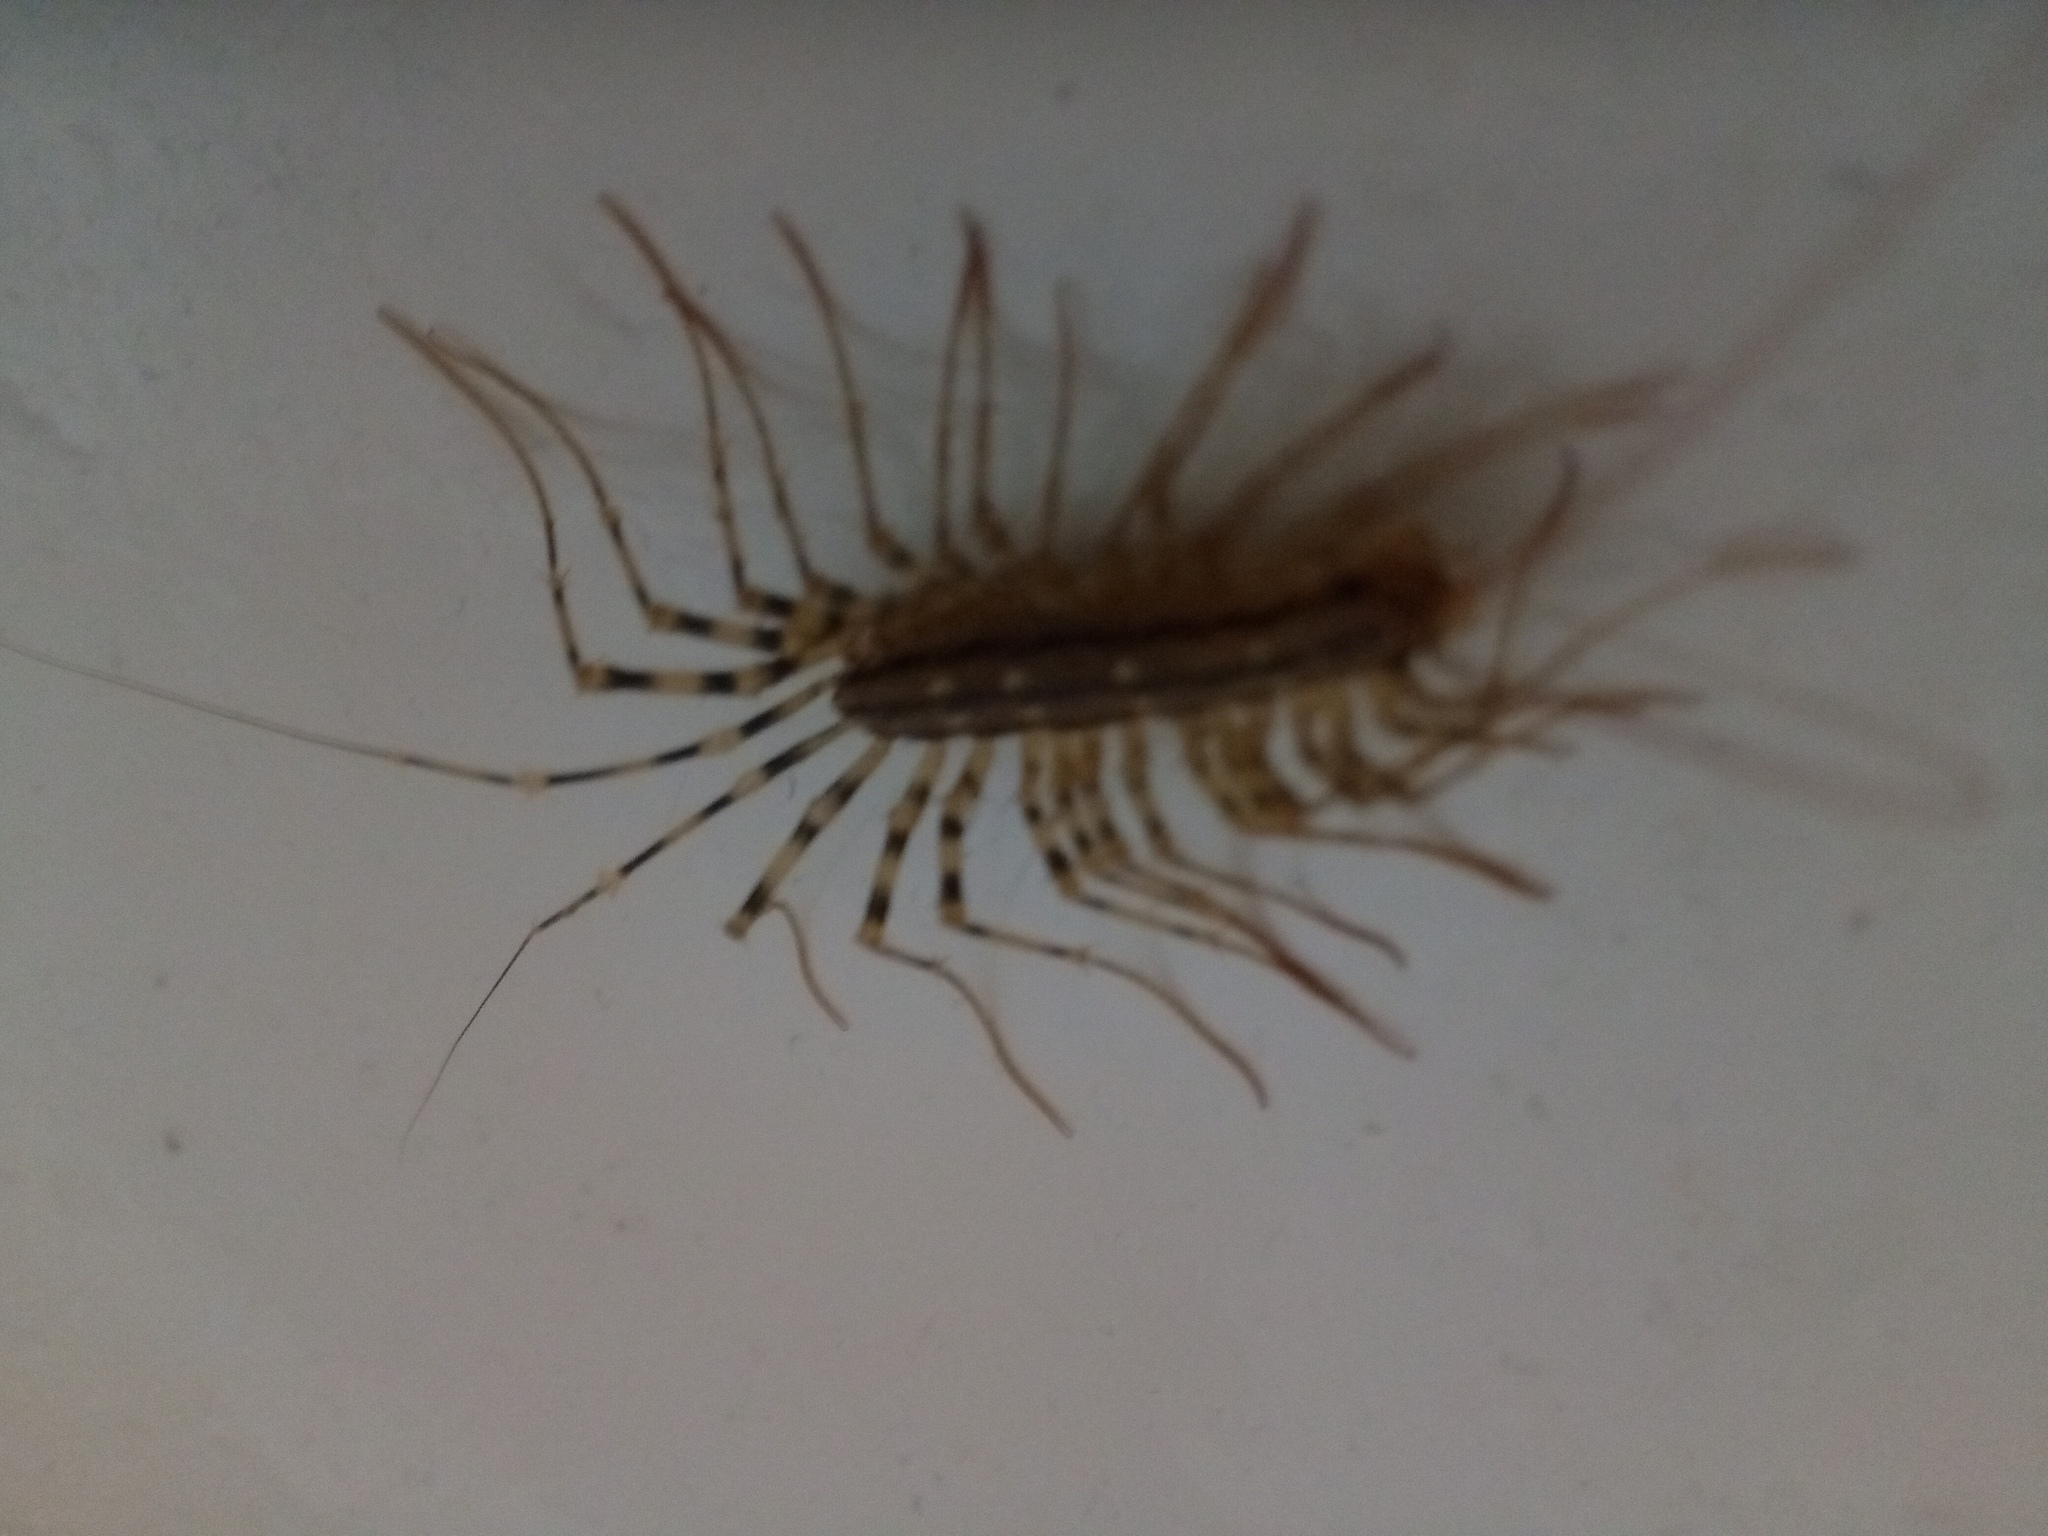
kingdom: Animalia
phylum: Arthropoda
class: Chilopoda
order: Scutigeromorpha
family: Scutigeridae
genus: Scutigera
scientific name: Scutigera coleoptrata
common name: House centipede
